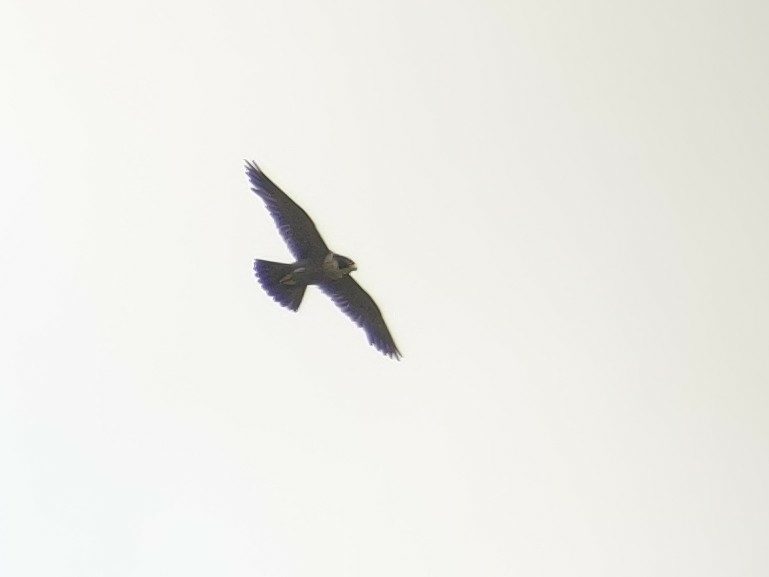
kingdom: Animalia
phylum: Chordata
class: Aves
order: Falconiformes
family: Falconidae
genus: Falco
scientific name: Falco peregrinus
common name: Peregrine falcon
